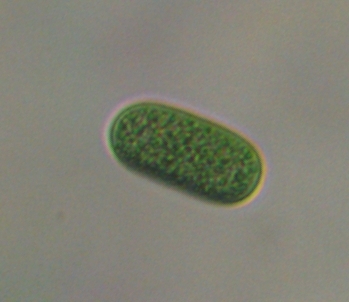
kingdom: Bacteria
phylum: Cyanobacteria
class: Cyanobacteriia
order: Thermosynechococcales
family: Thermosynechococcaceae
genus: Cyanothece
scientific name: Cyanothece aeruginosa
